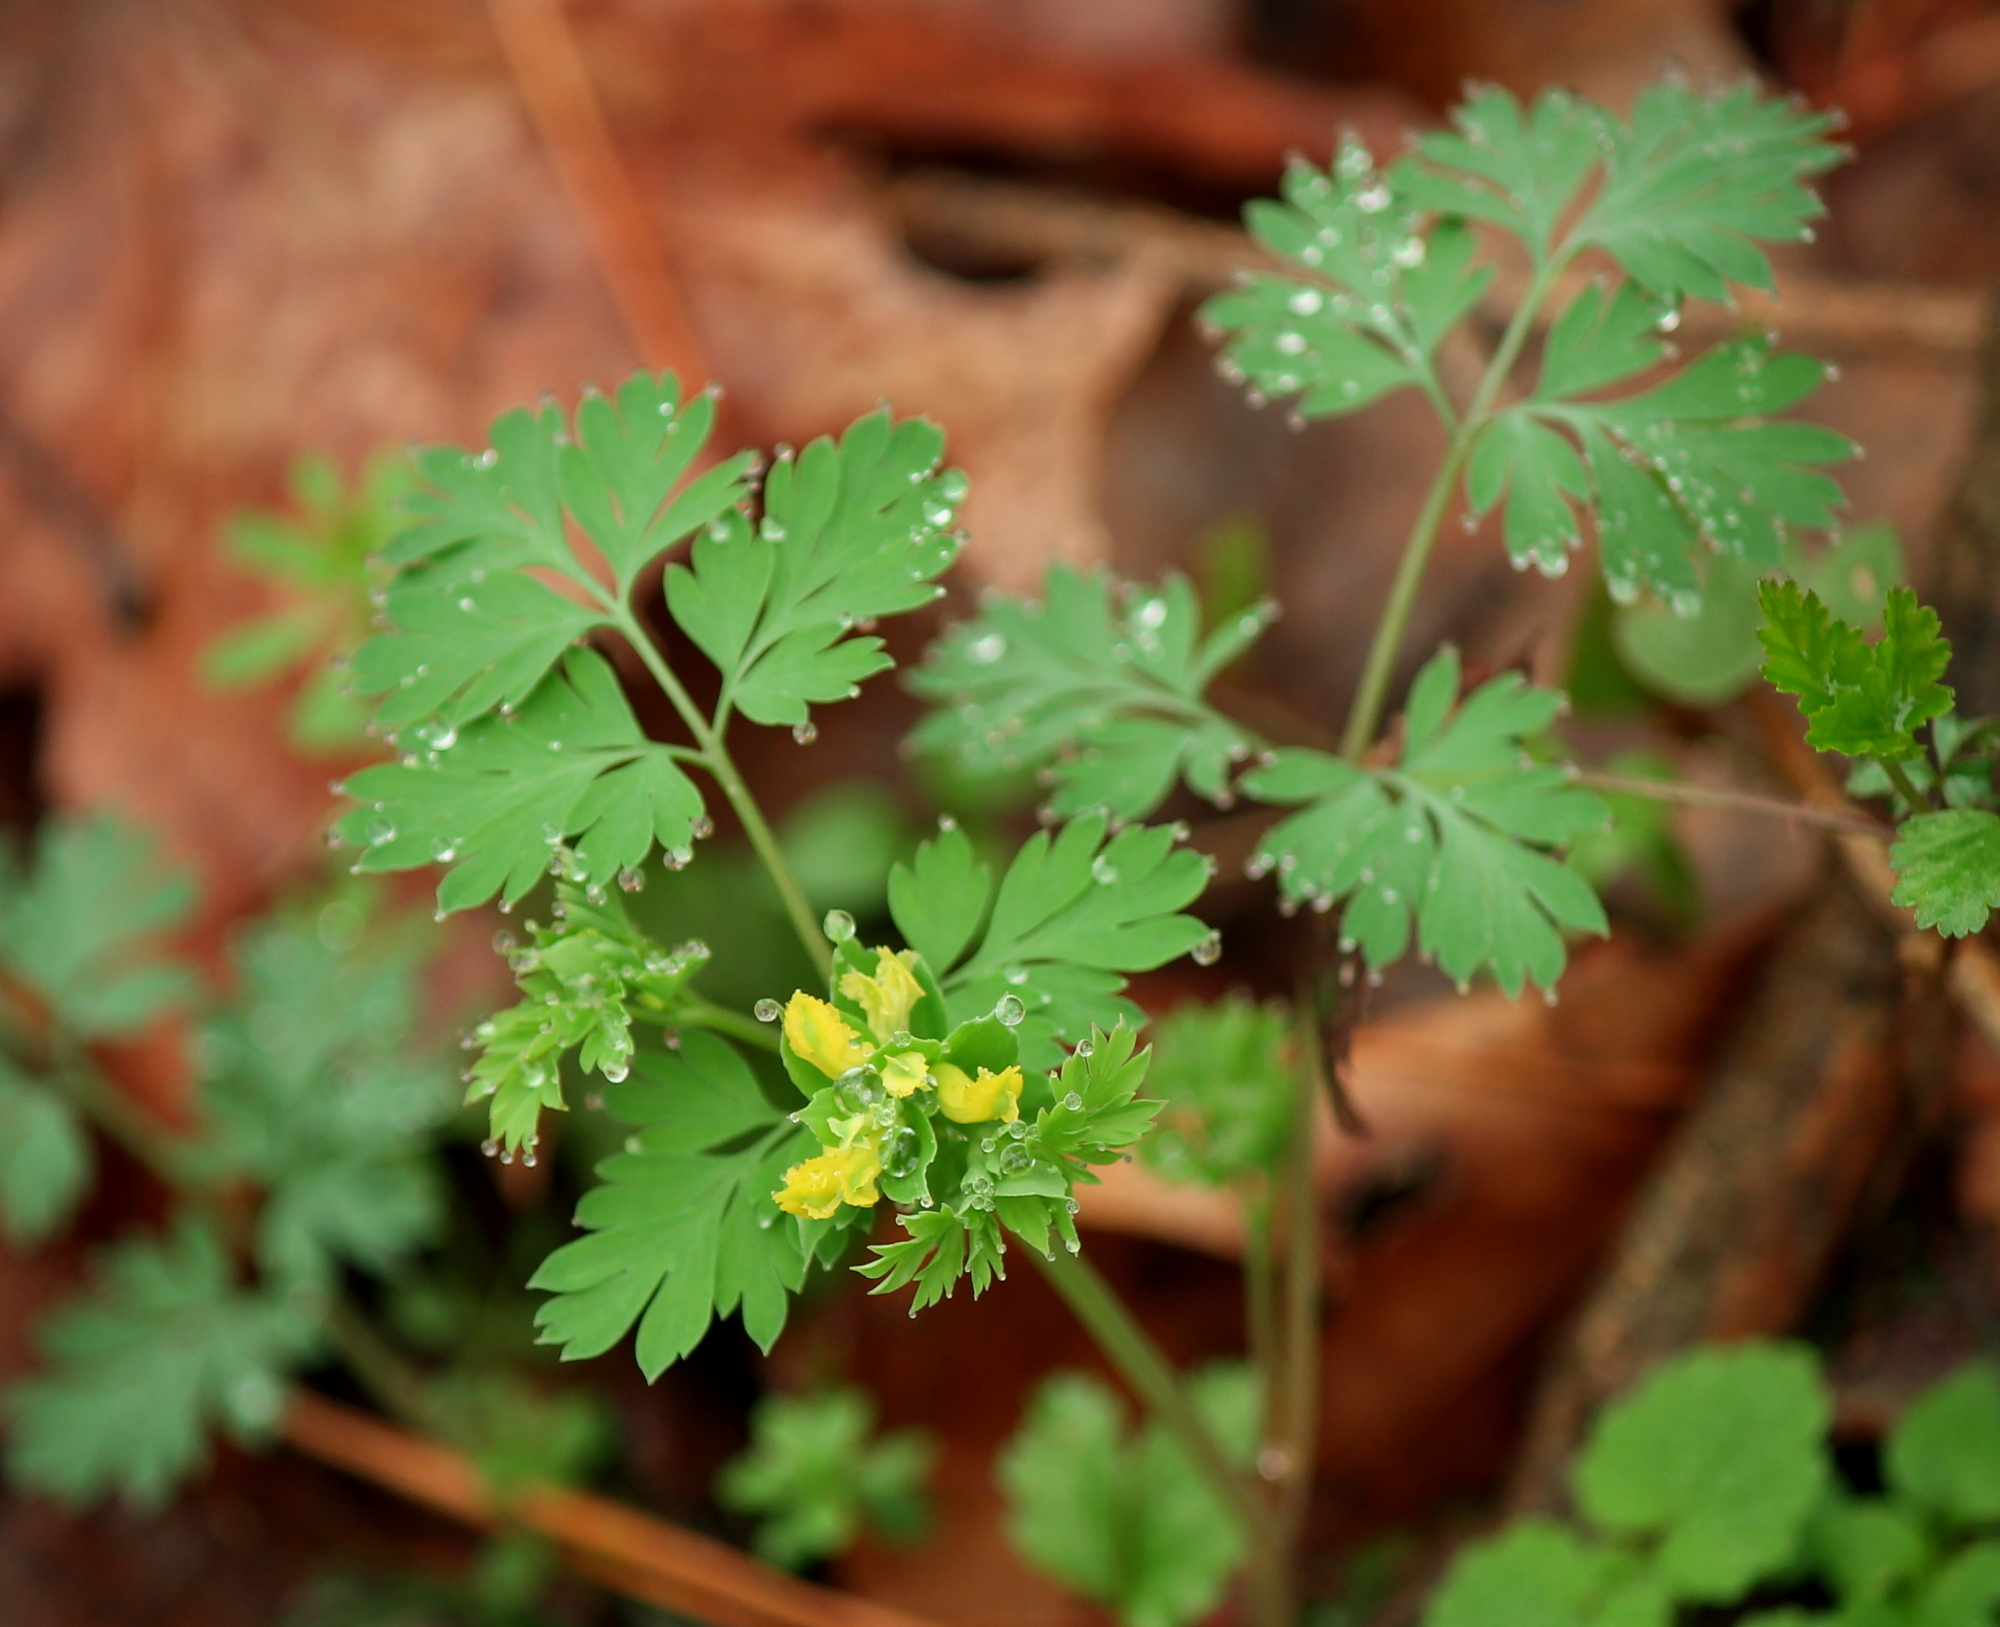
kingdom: Plantae
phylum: Tracheophyta
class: Magnoliopsida
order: Ranunculales
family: Papaveraceae
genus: Corydalis
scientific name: Corydalis flavula
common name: Yellow corydalis
